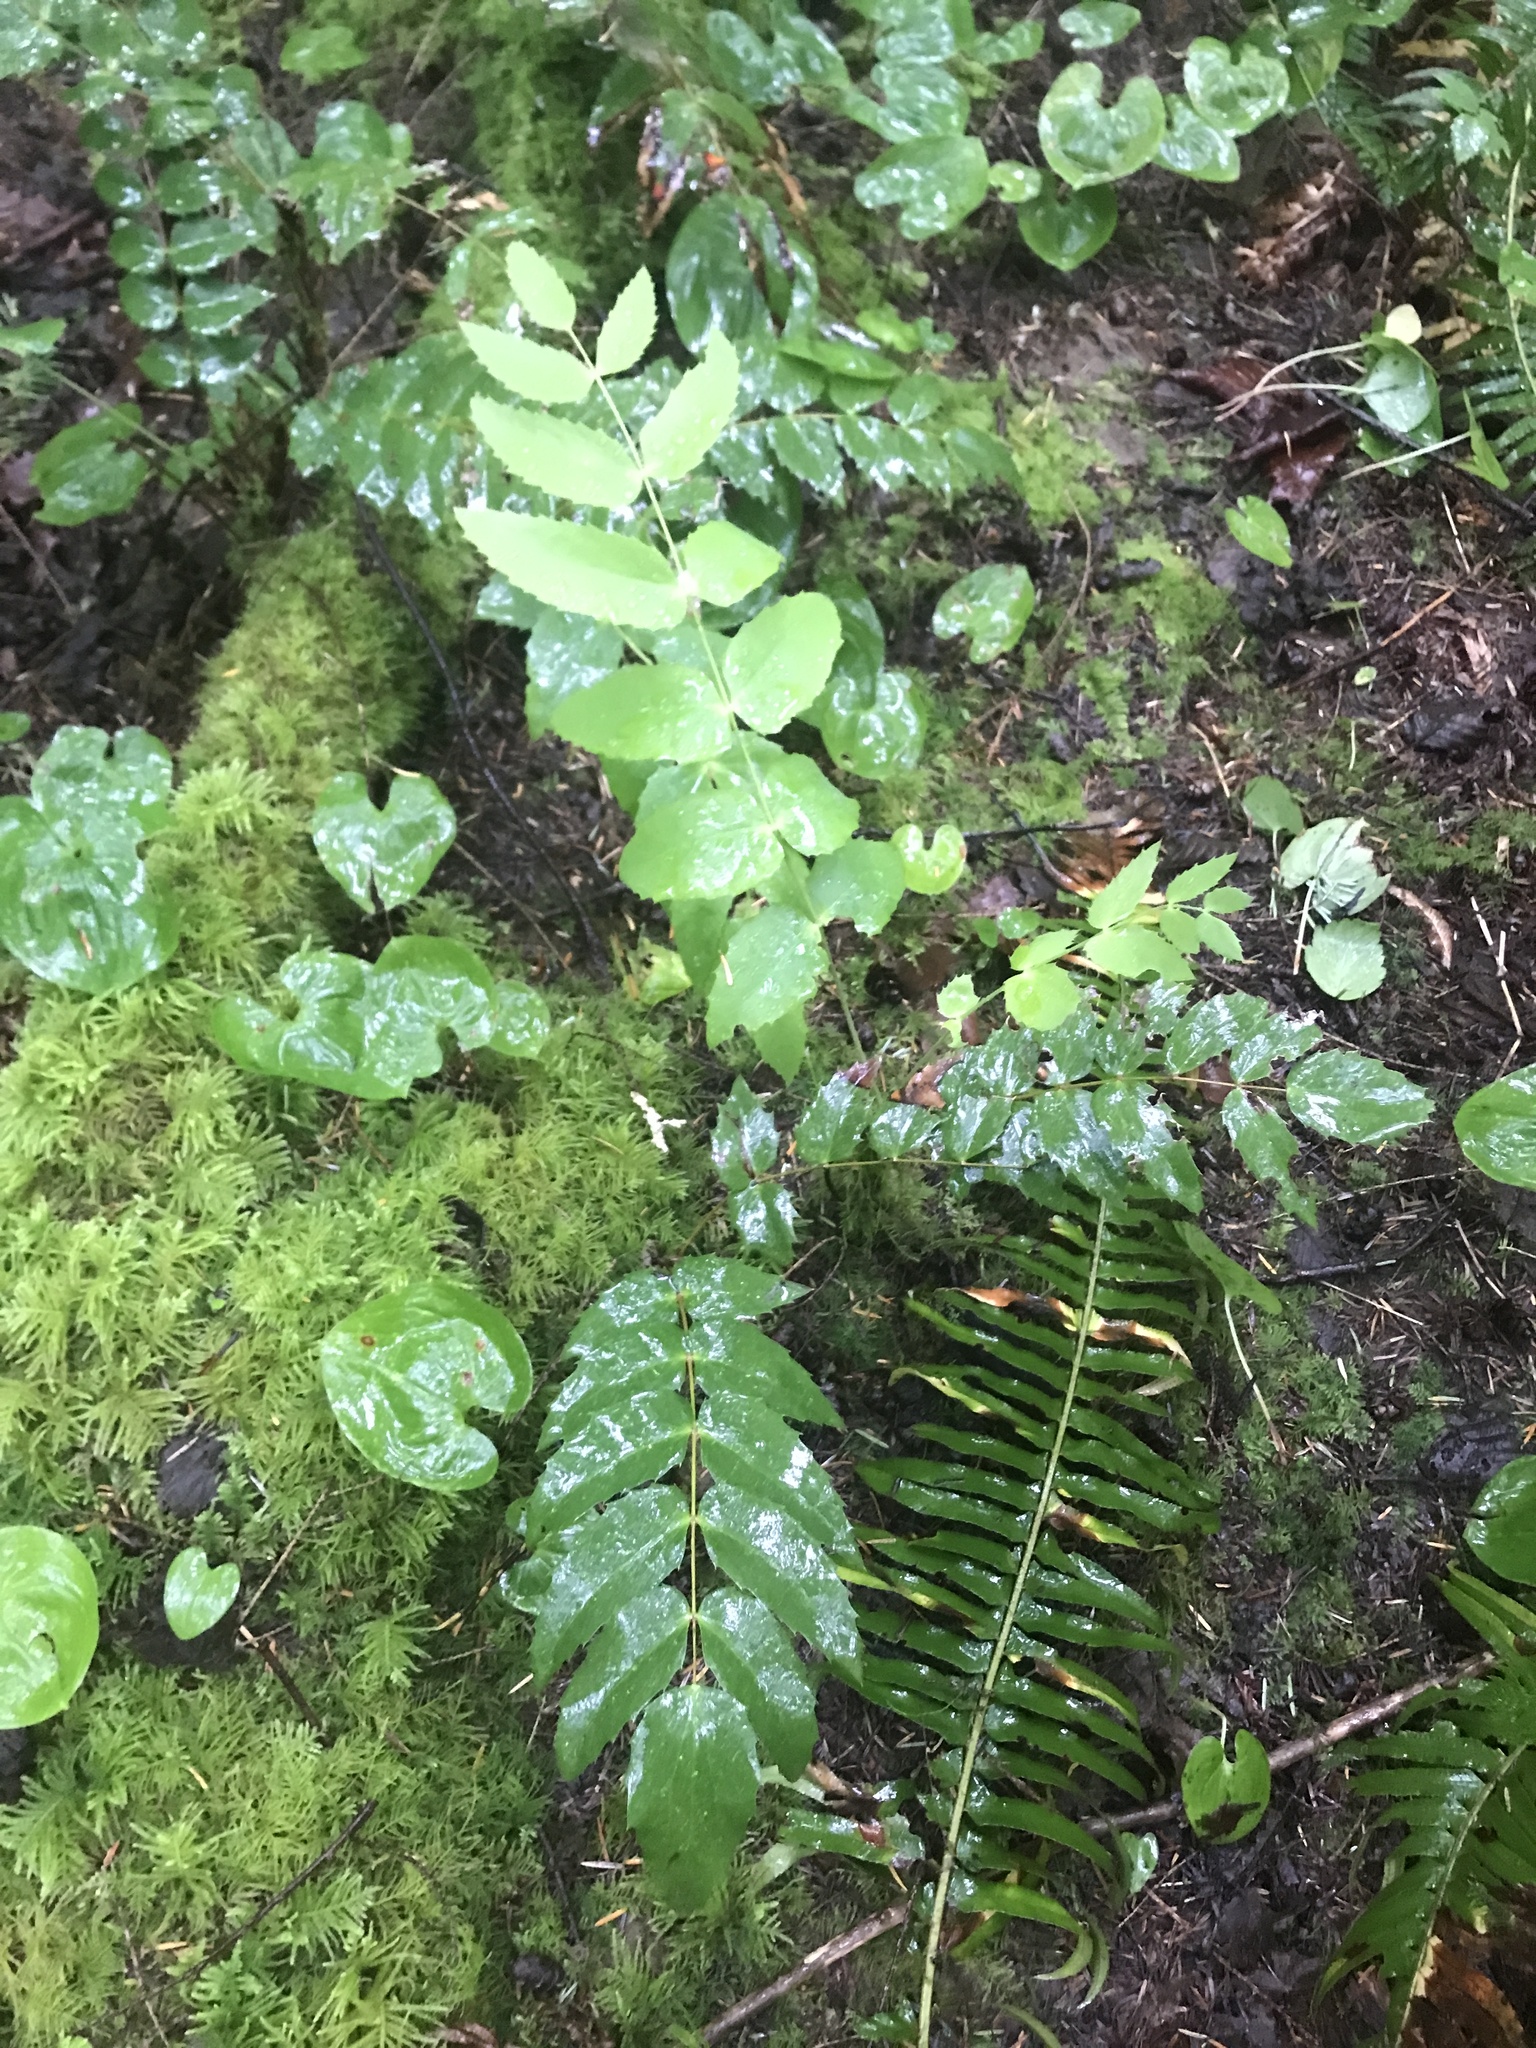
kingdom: Plantae
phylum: Tracheophyta
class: Magnoliopsida
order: Ranunculales
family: Berberidaceae
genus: Mahonia
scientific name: Mahonia nervosa
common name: Cascade oregon-grape
